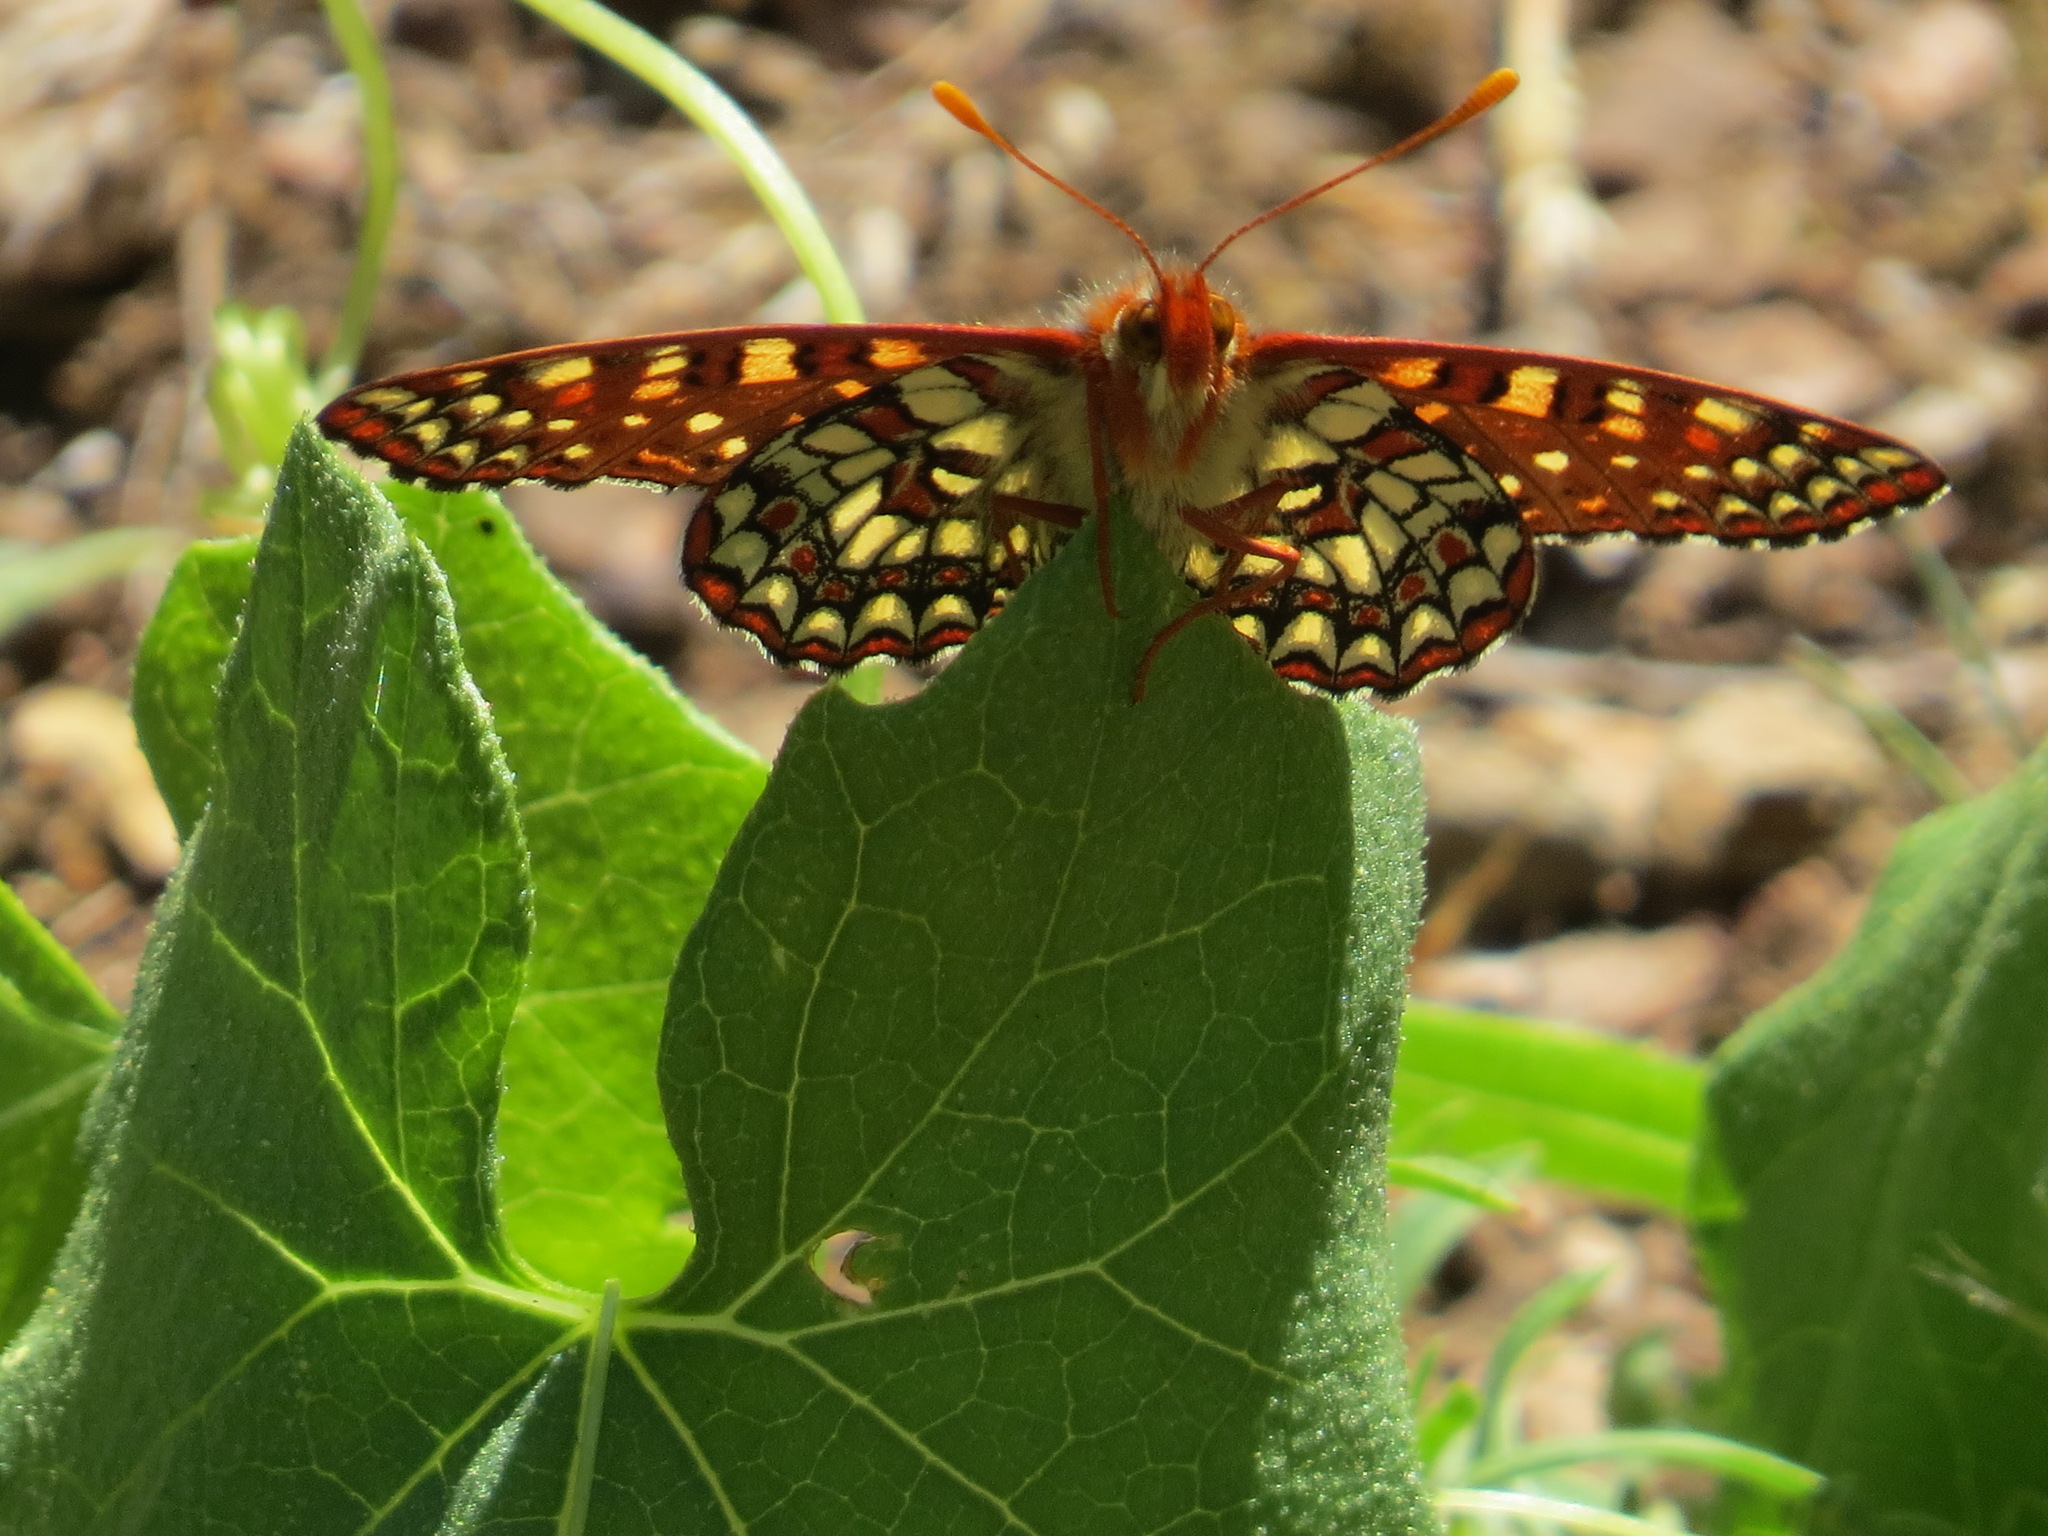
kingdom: Animalia
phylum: Arthropoda
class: Insecta
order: Lepidoptera
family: Nymphalidae
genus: Occidryas
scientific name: Occidryas chalcedona
